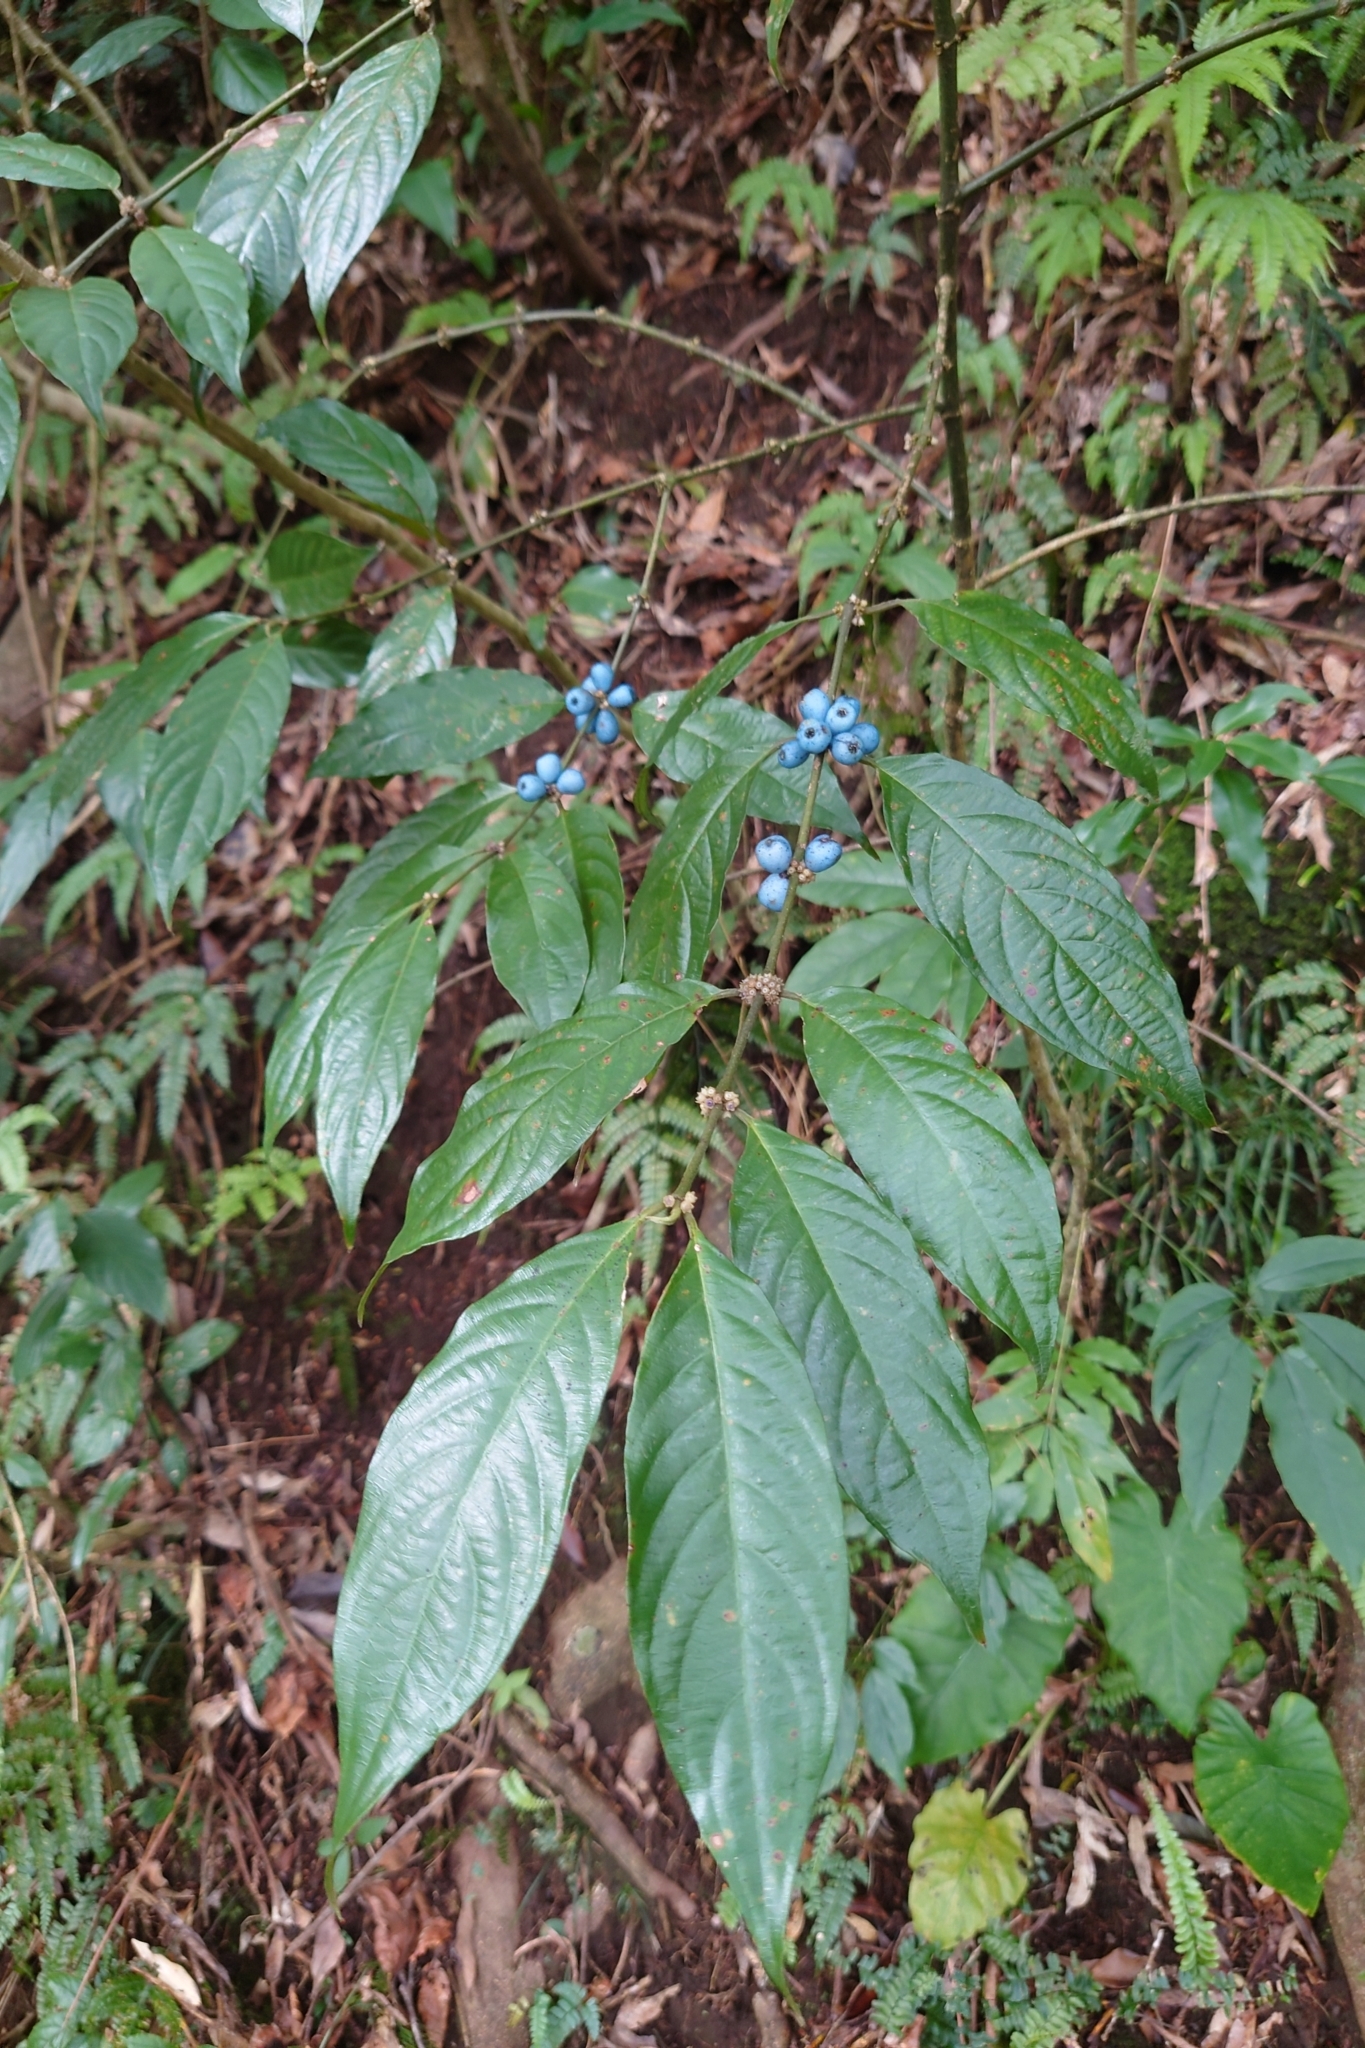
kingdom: Plantae
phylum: Tracheophyta
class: Magnoliopsida
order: Gentianales
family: Rubiaceae
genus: Lasianthus
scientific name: Lasianthus fordii
